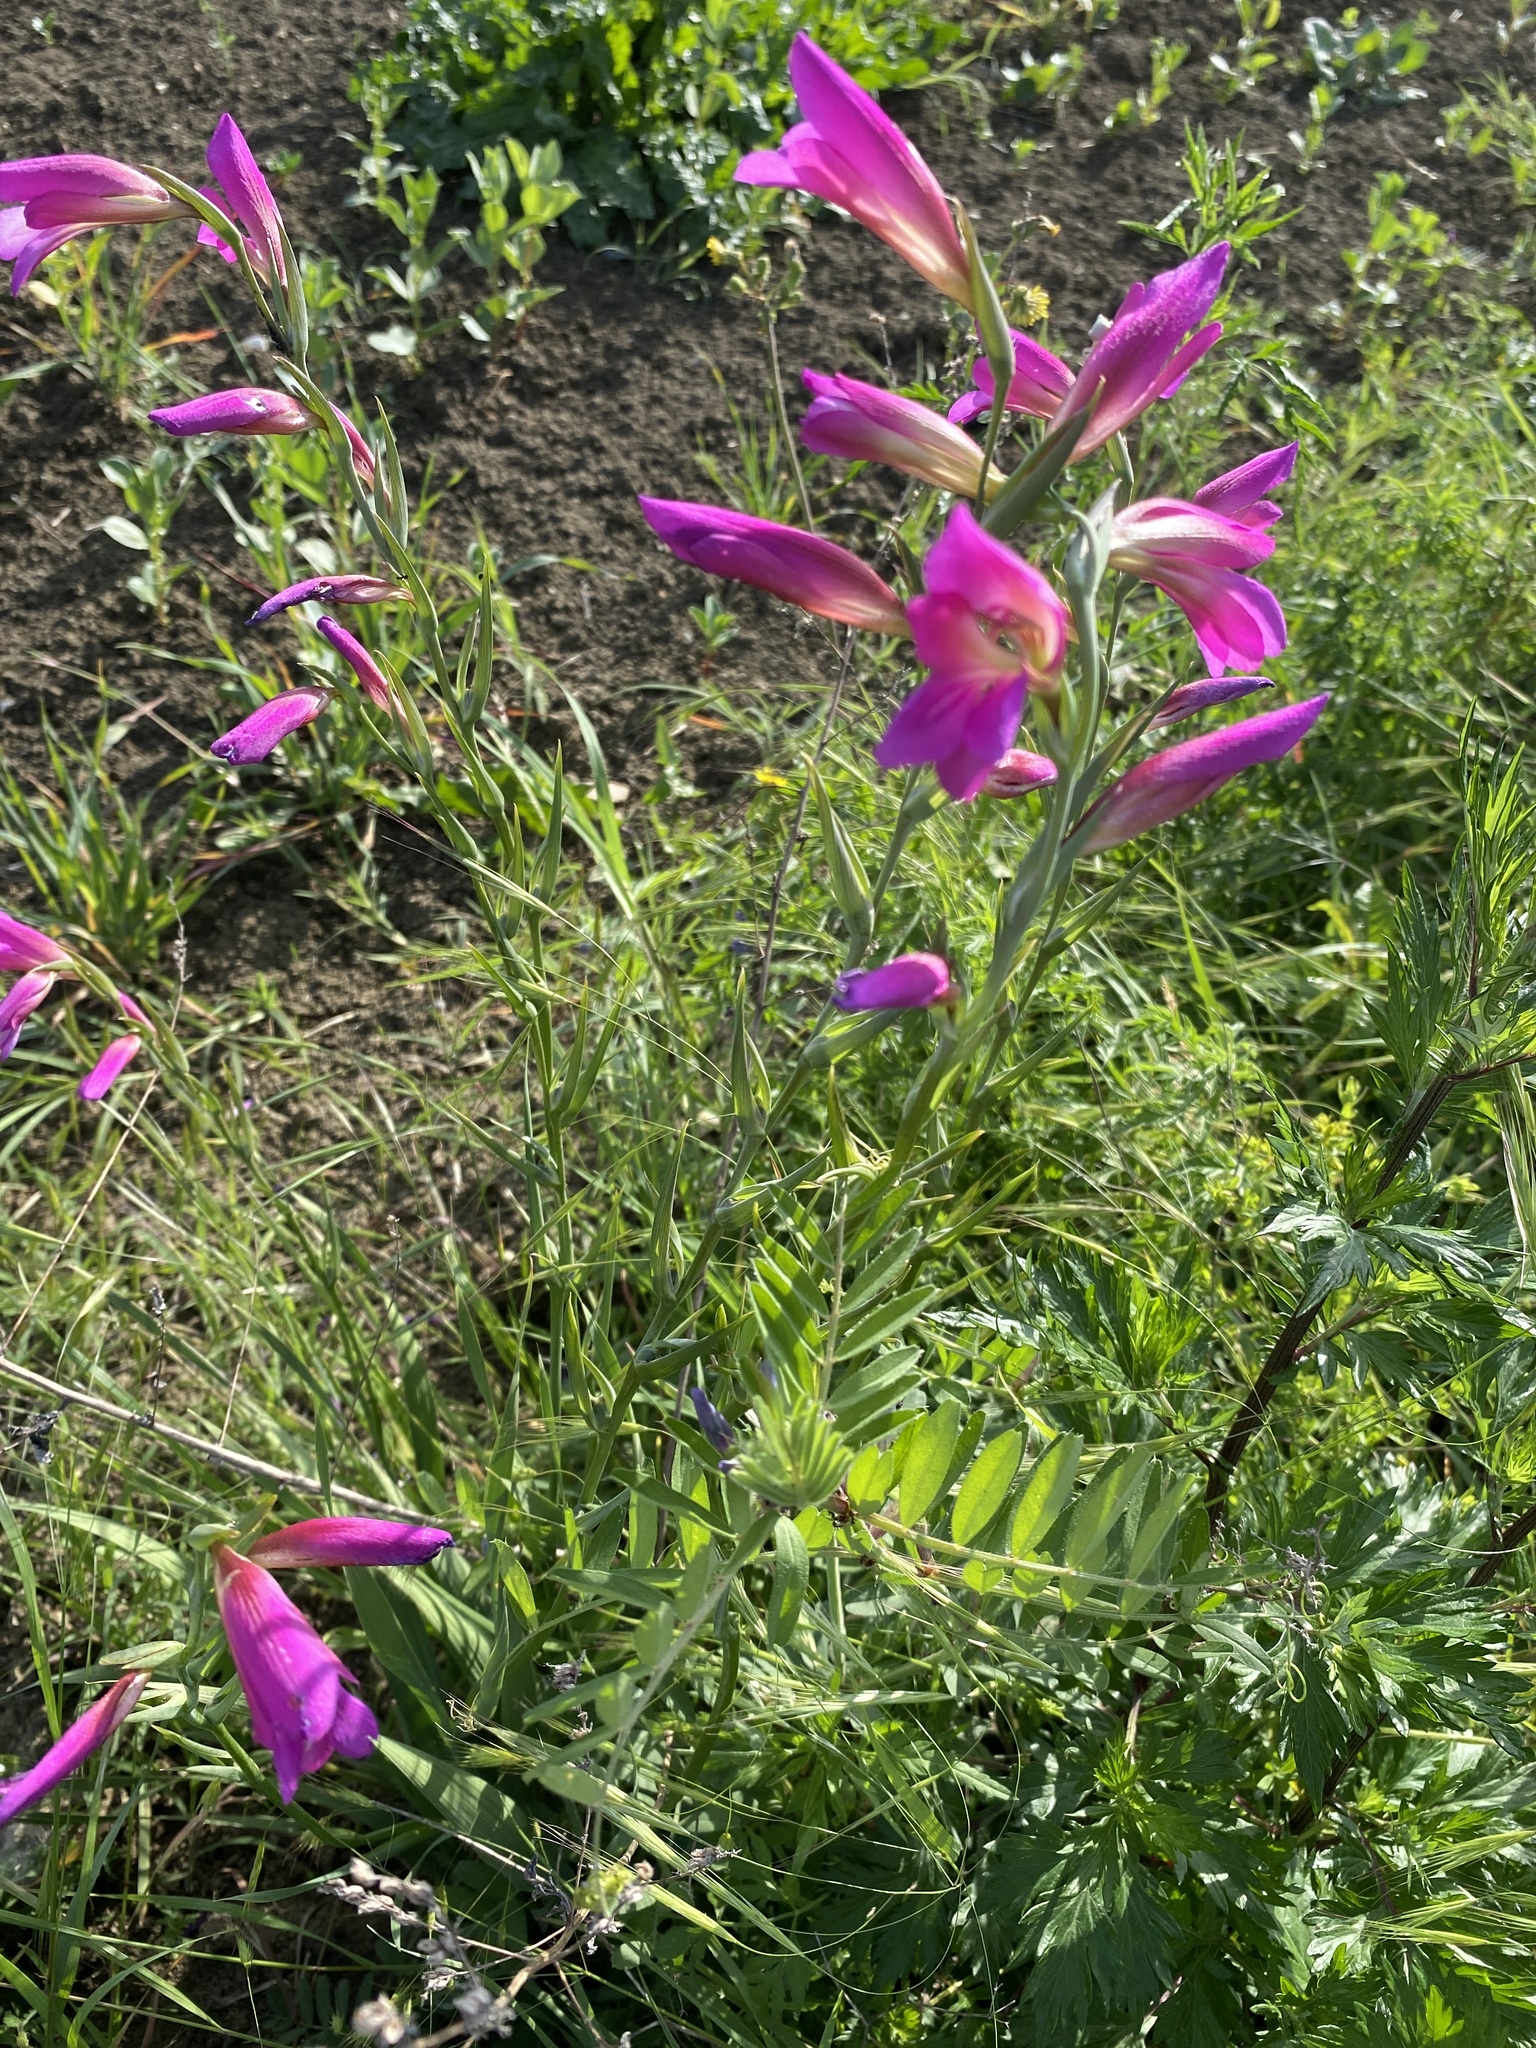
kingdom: Plantae
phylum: Tracheophyta
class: Liliopsida
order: Asparagales
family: Iridaceae
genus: Gladiolus
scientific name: Gladiolus italicus
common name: Field gladiolus
